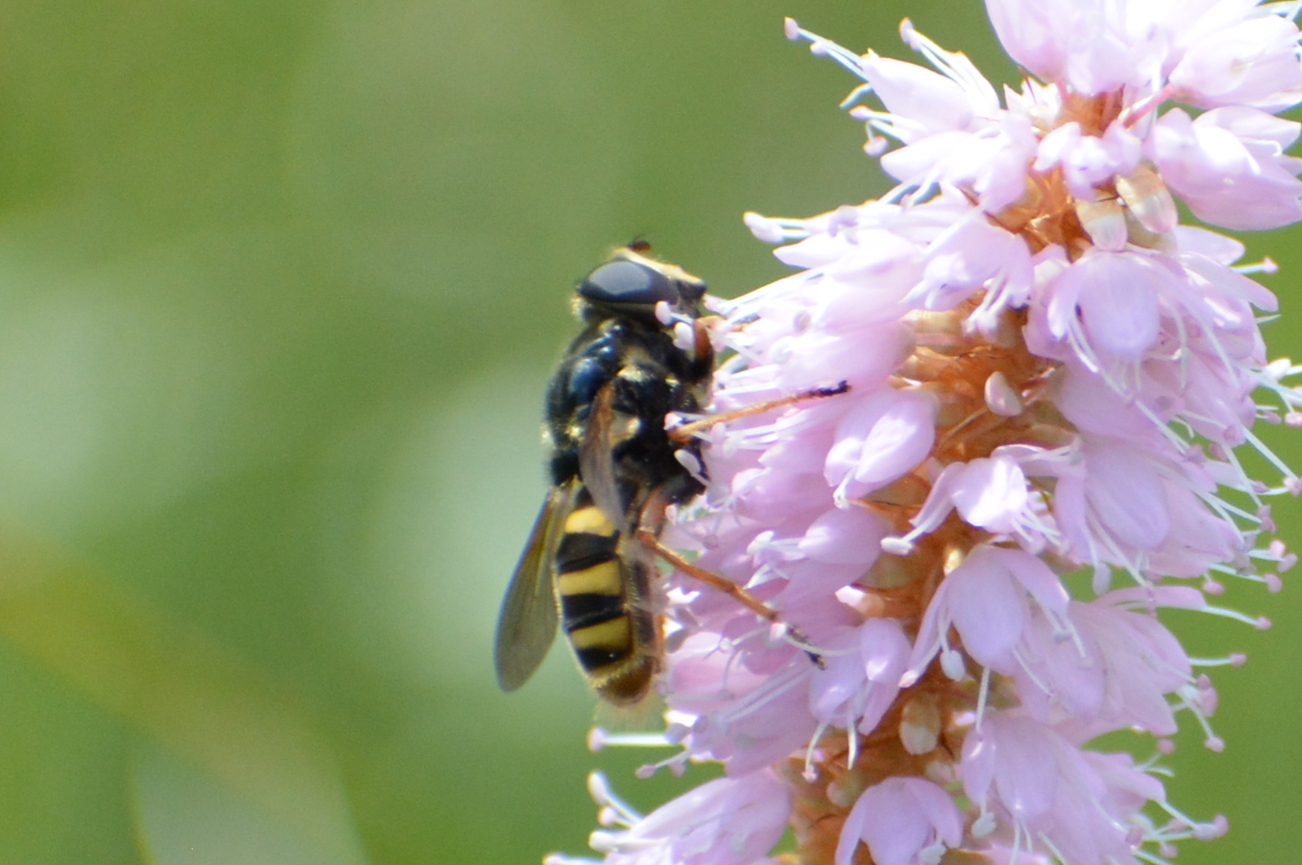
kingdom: Animalia
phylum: Arthropoda
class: Insecta
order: Diptera
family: Syrphidae
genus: Sericomyia
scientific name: Sericomyia silentis
